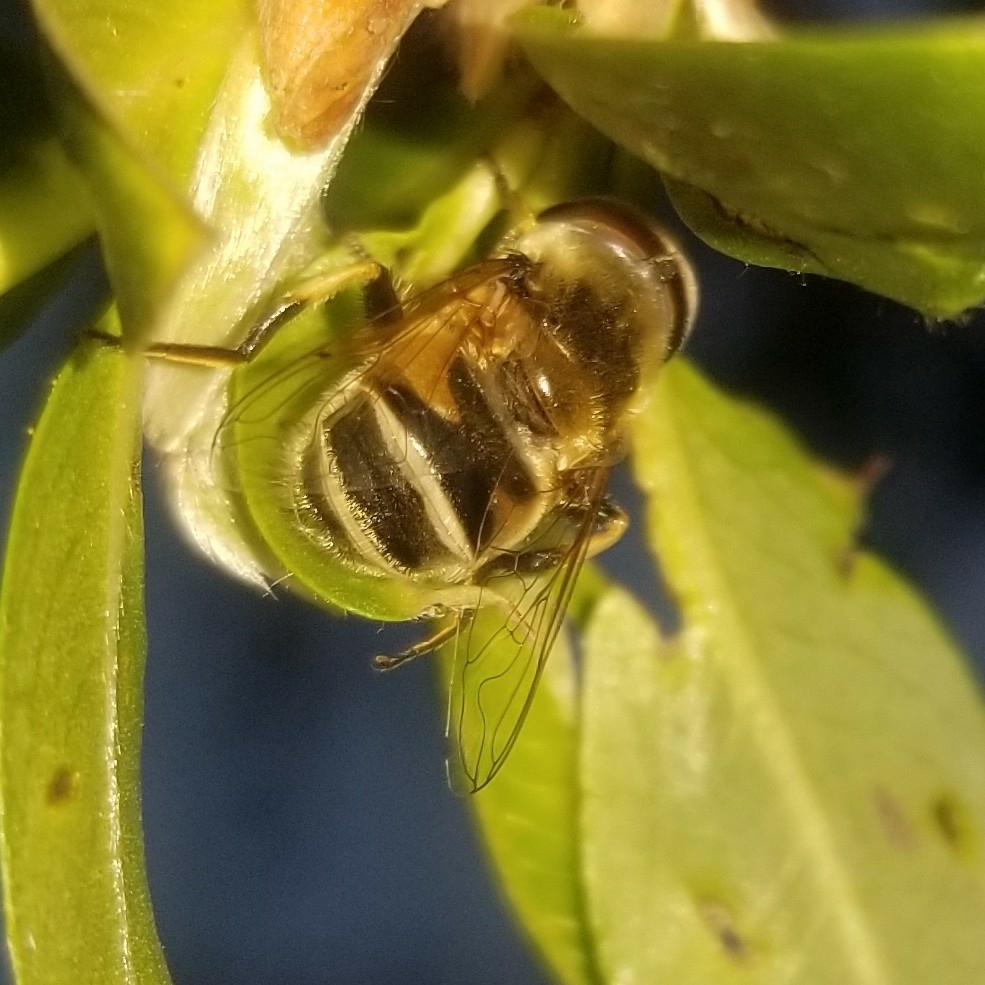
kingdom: Animalia
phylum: Arthropoda
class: Insecta
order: Diptera
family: Syrphidae
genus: Eristalis
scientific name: Eristalis stipator
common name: Yellow-shouldered drone fly
